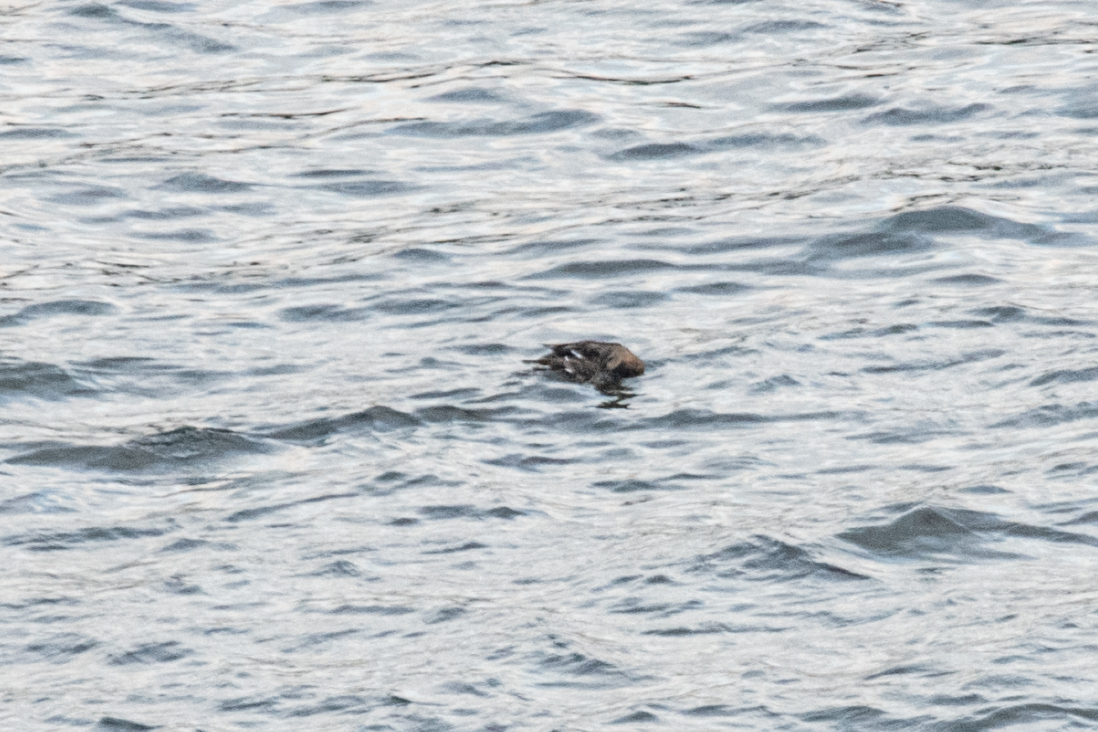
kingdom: Animalia
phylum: Chordata
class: Aves
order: Anseriformes
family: Anatidae
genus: Anas
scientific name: Anas platyrhynchos
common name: Mallard
